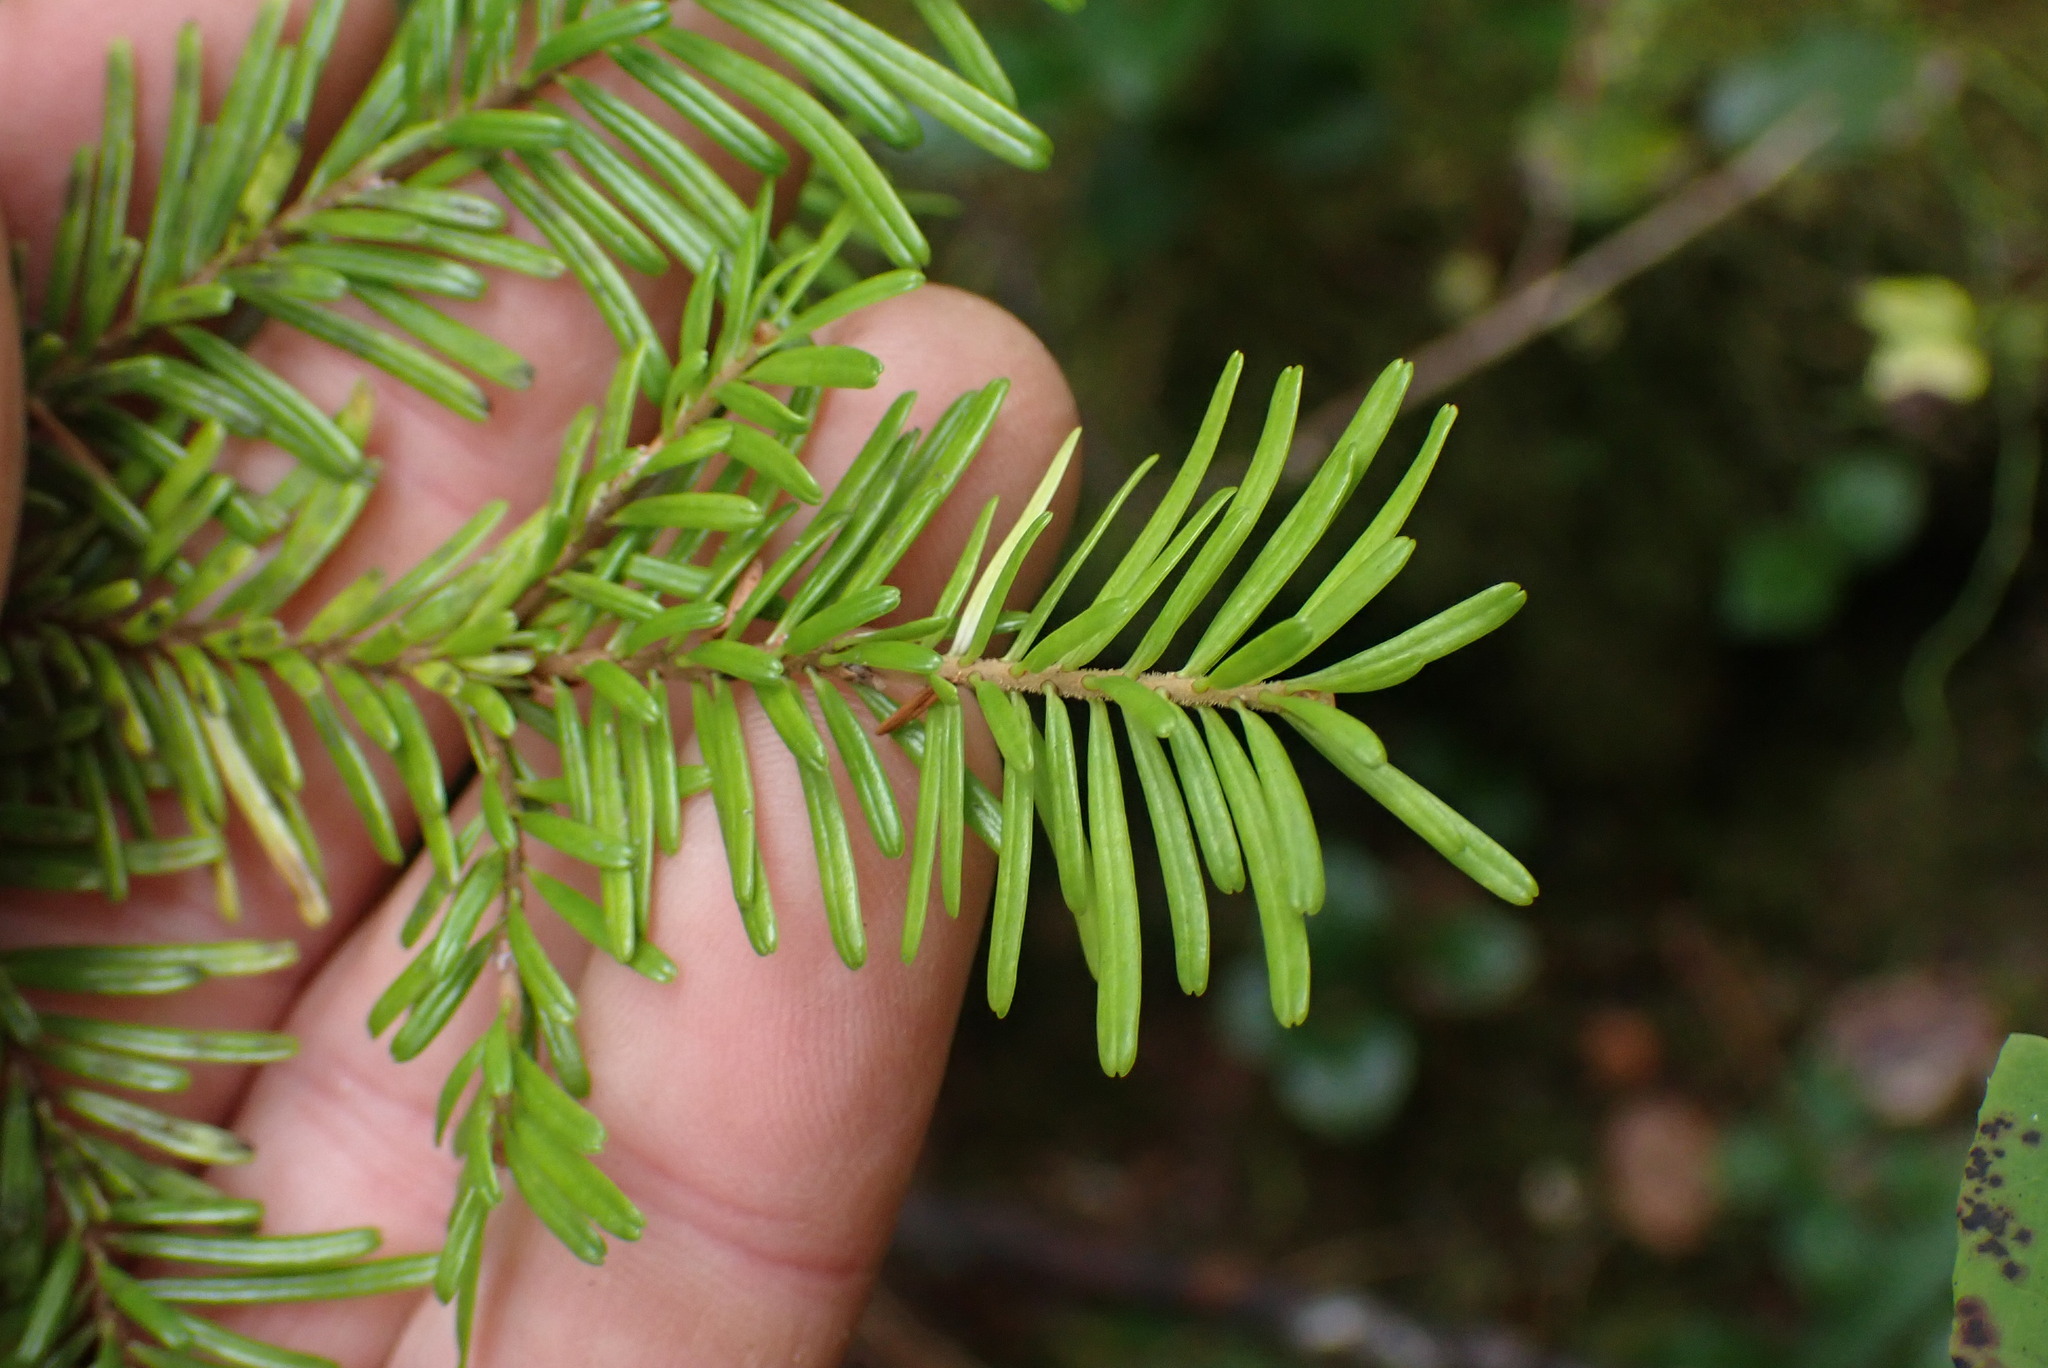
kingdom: Plantae
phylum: Tracheophyta
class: Pinopsida
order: Pinales
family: Pinaceae
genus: Abies
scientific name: Abies amabilis
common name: Pacific silver fir
